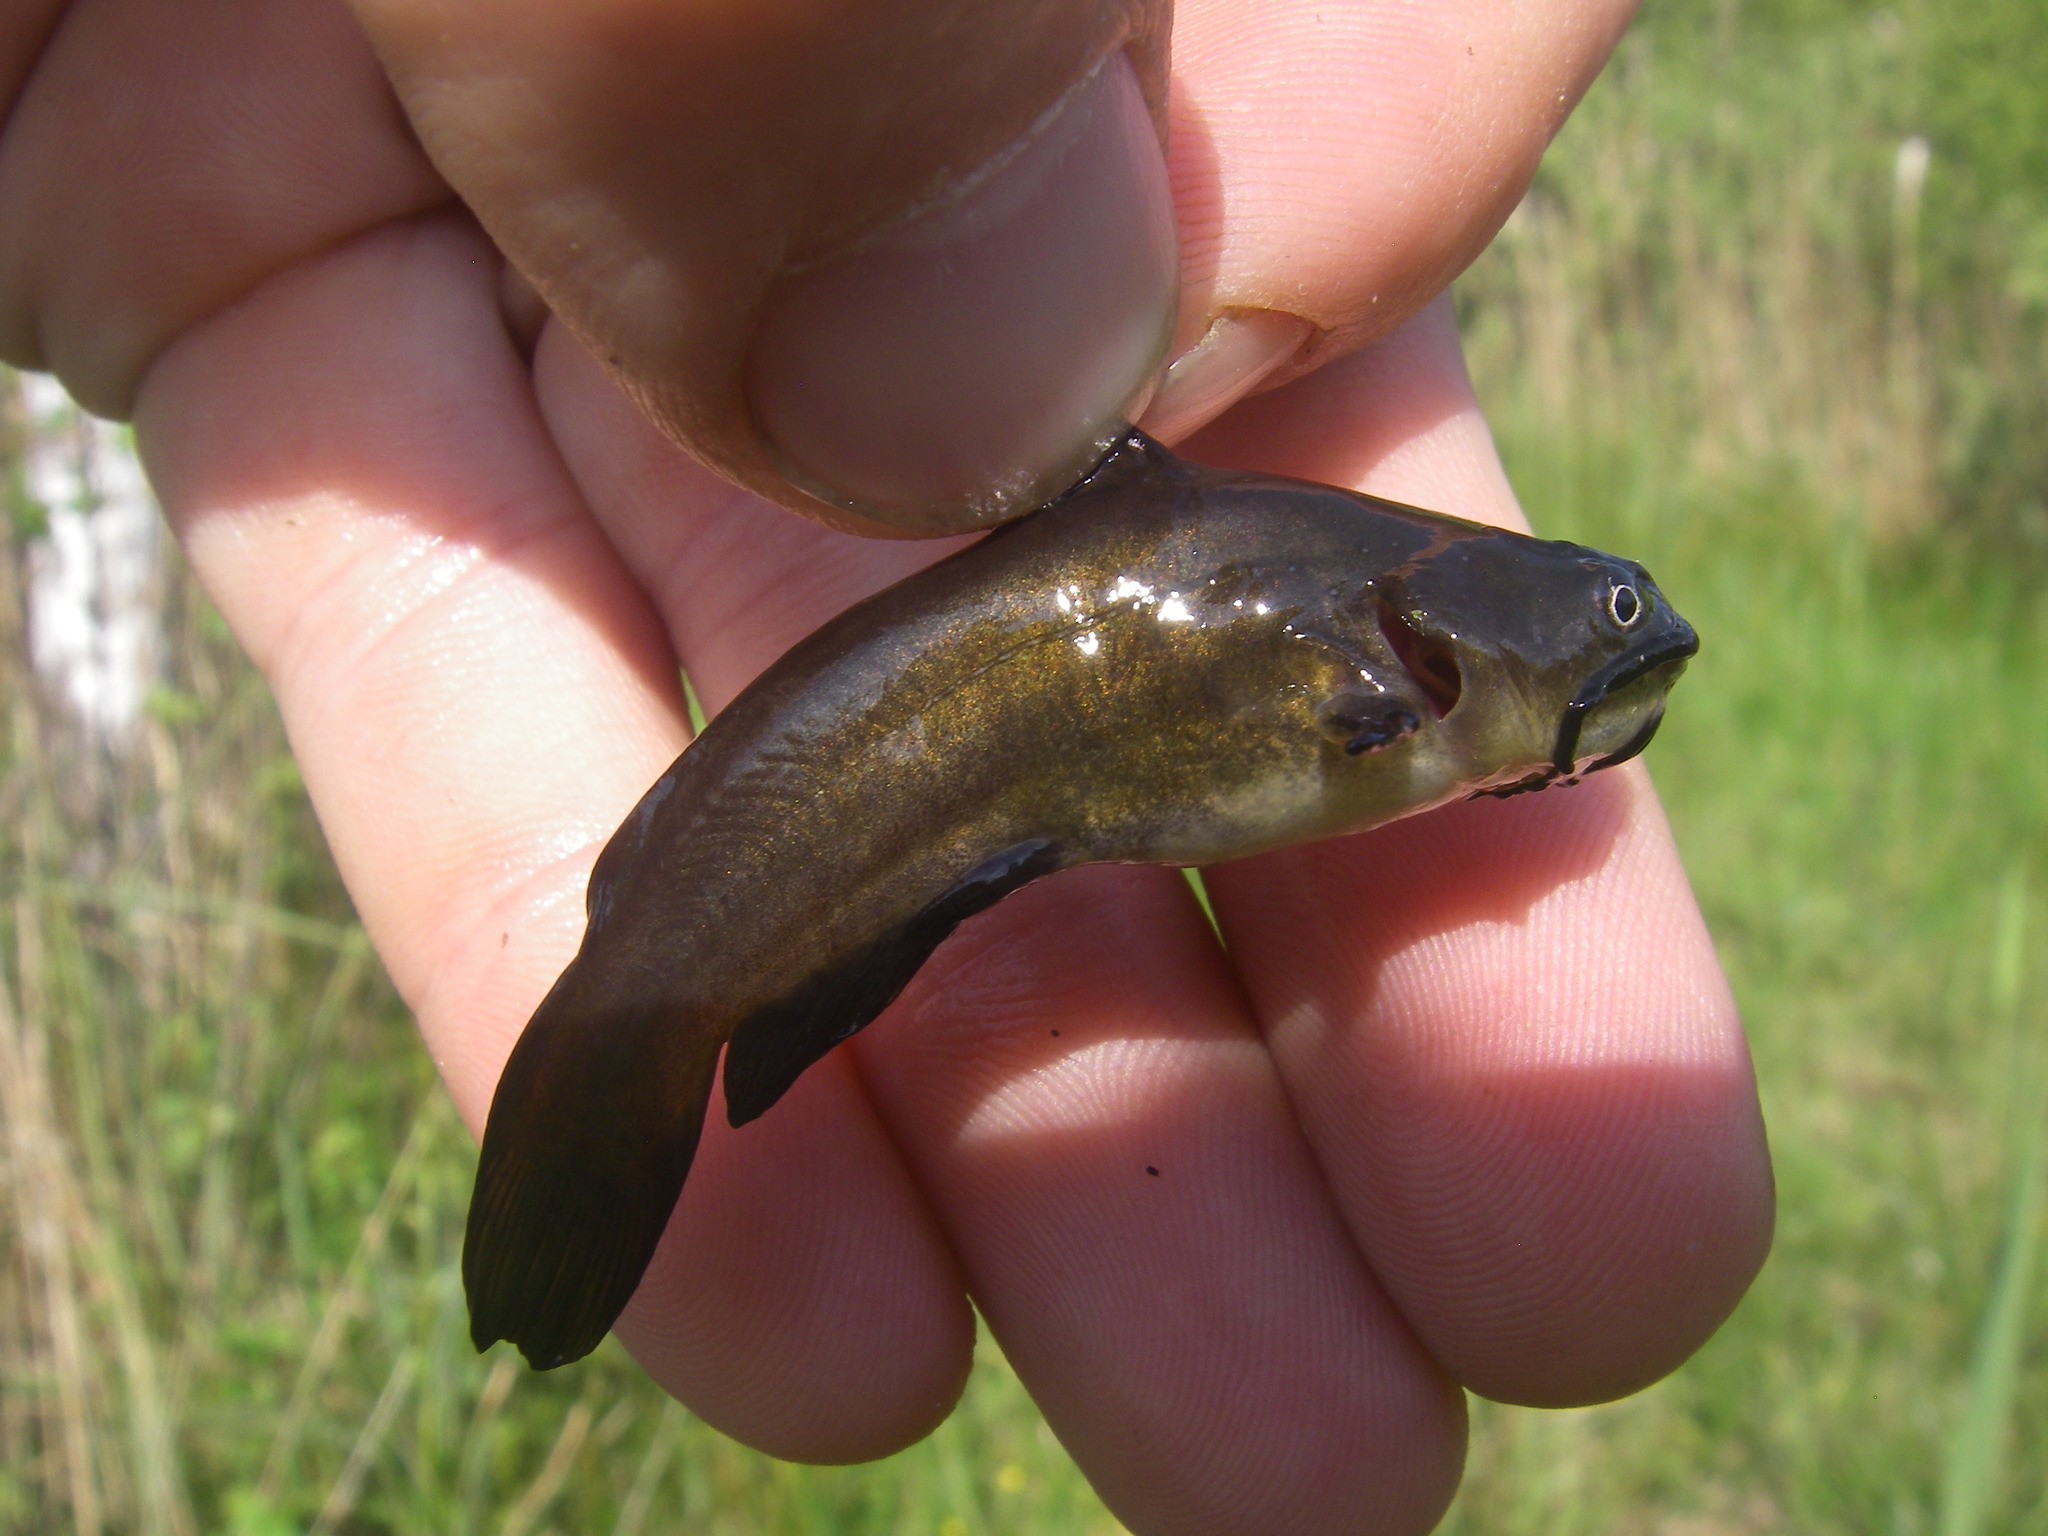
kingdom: Animalia
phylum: Chordata
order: Siluriformes
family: Ictaluridae
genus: Ameiurus
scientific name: Ameiurus melas
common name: Black bullhead
